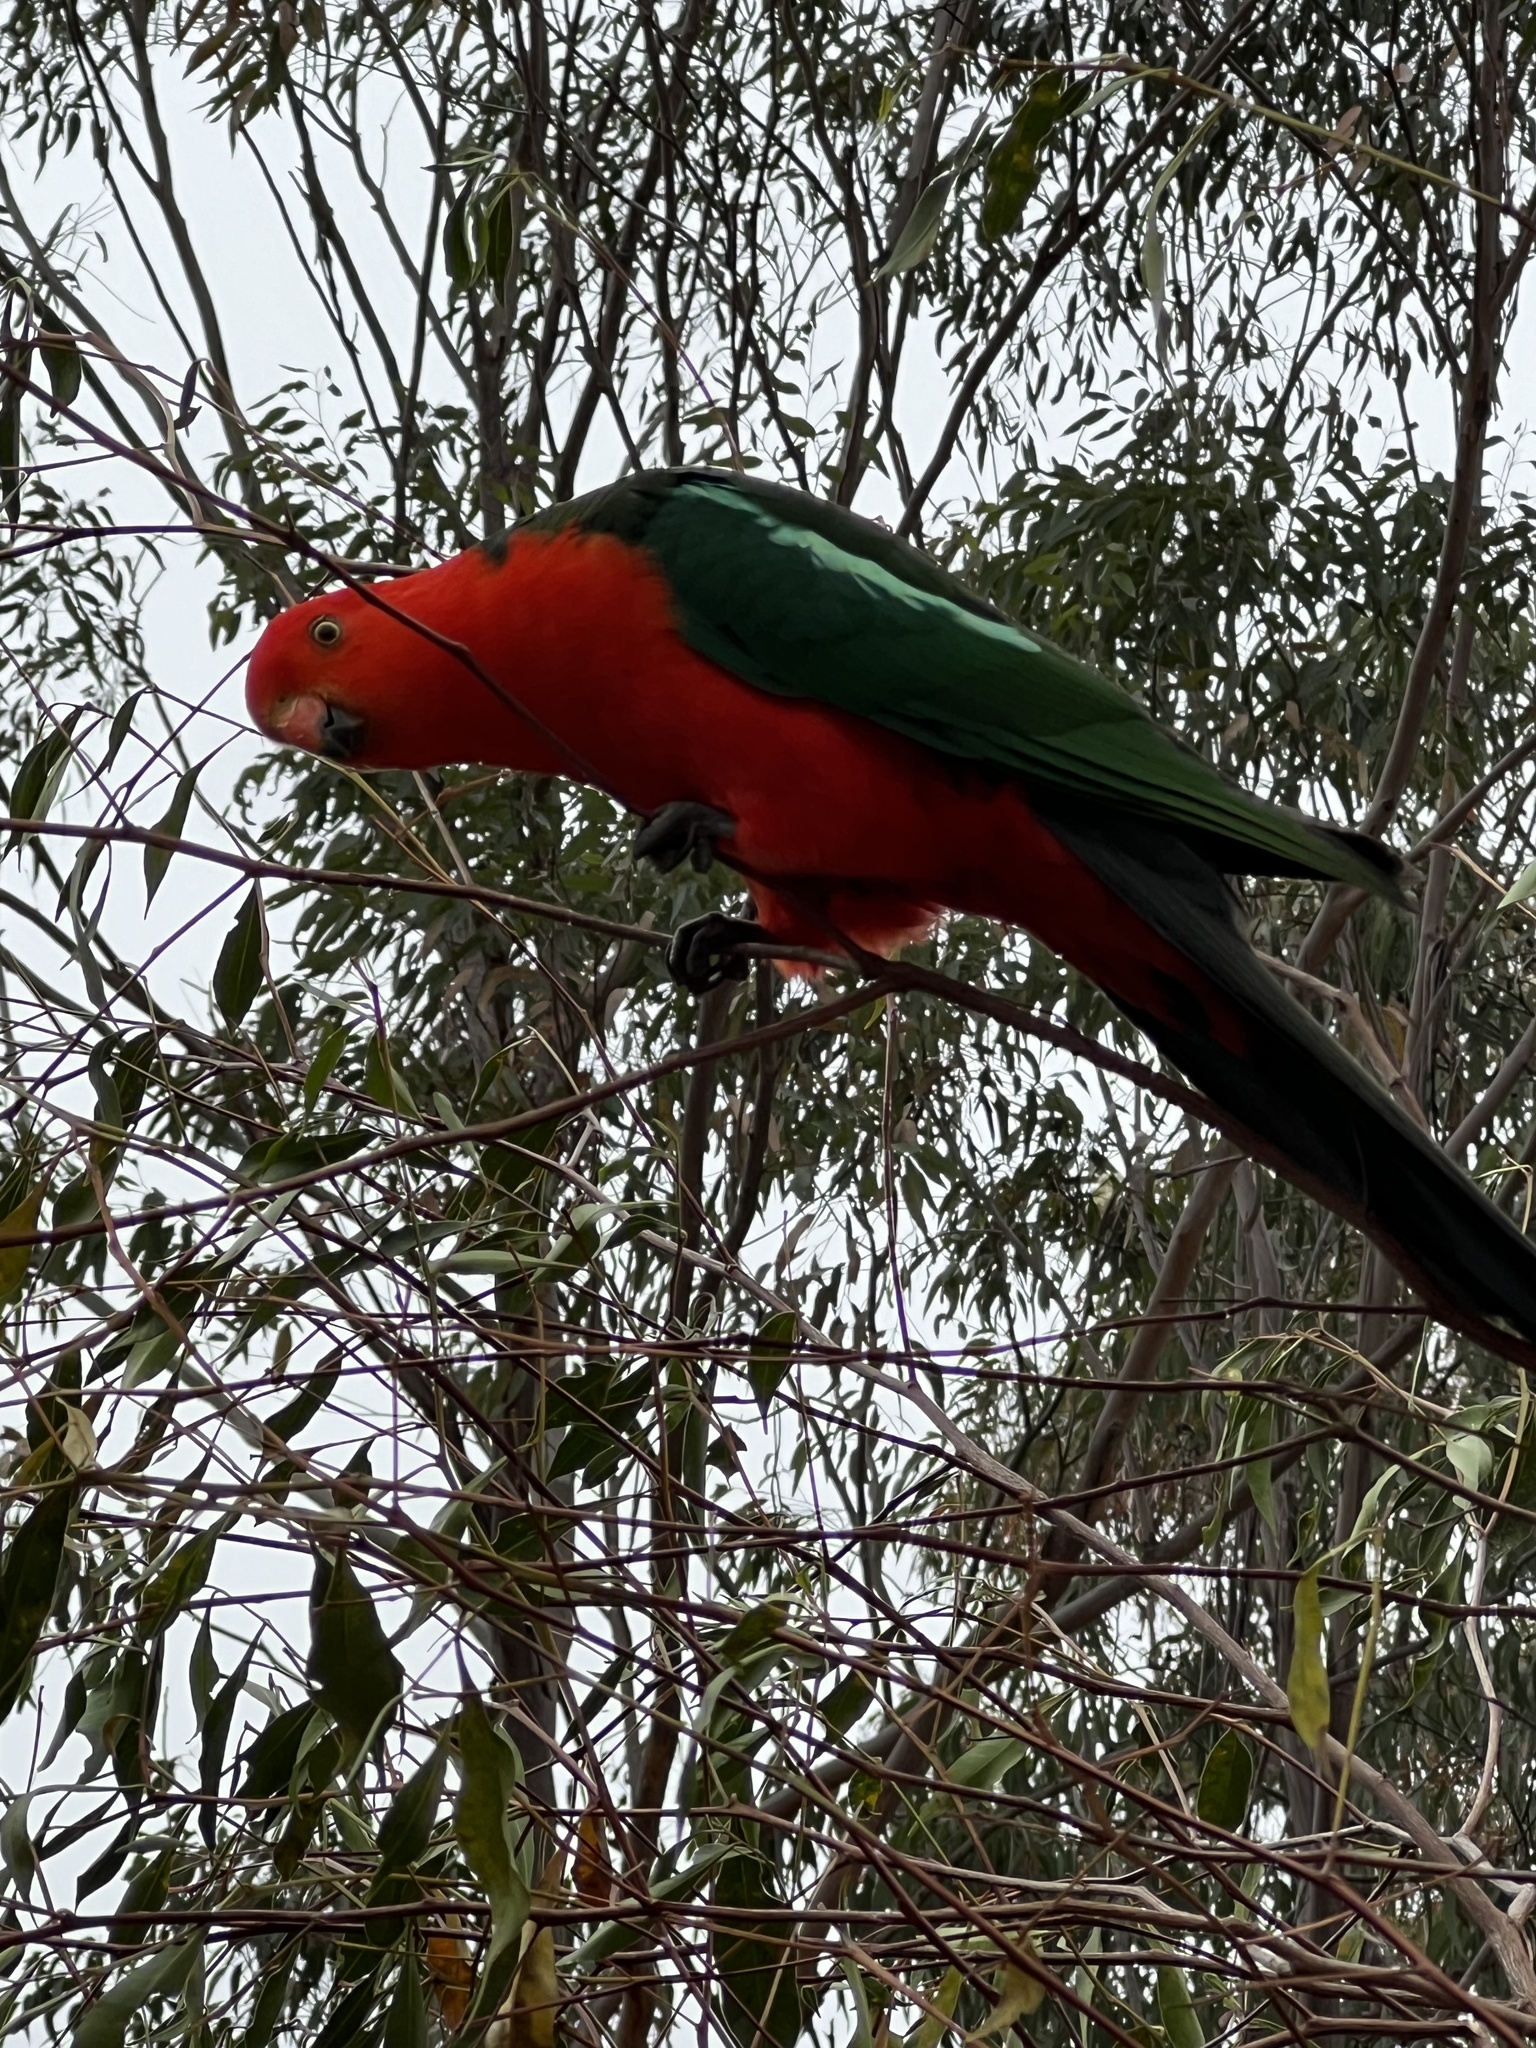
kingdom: Animalia
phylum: Chordata
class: Aves
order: Psittaciformes
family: Psittacidae
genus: Alisterus
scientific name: Alisterus scapularis
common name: Australian king parrot
